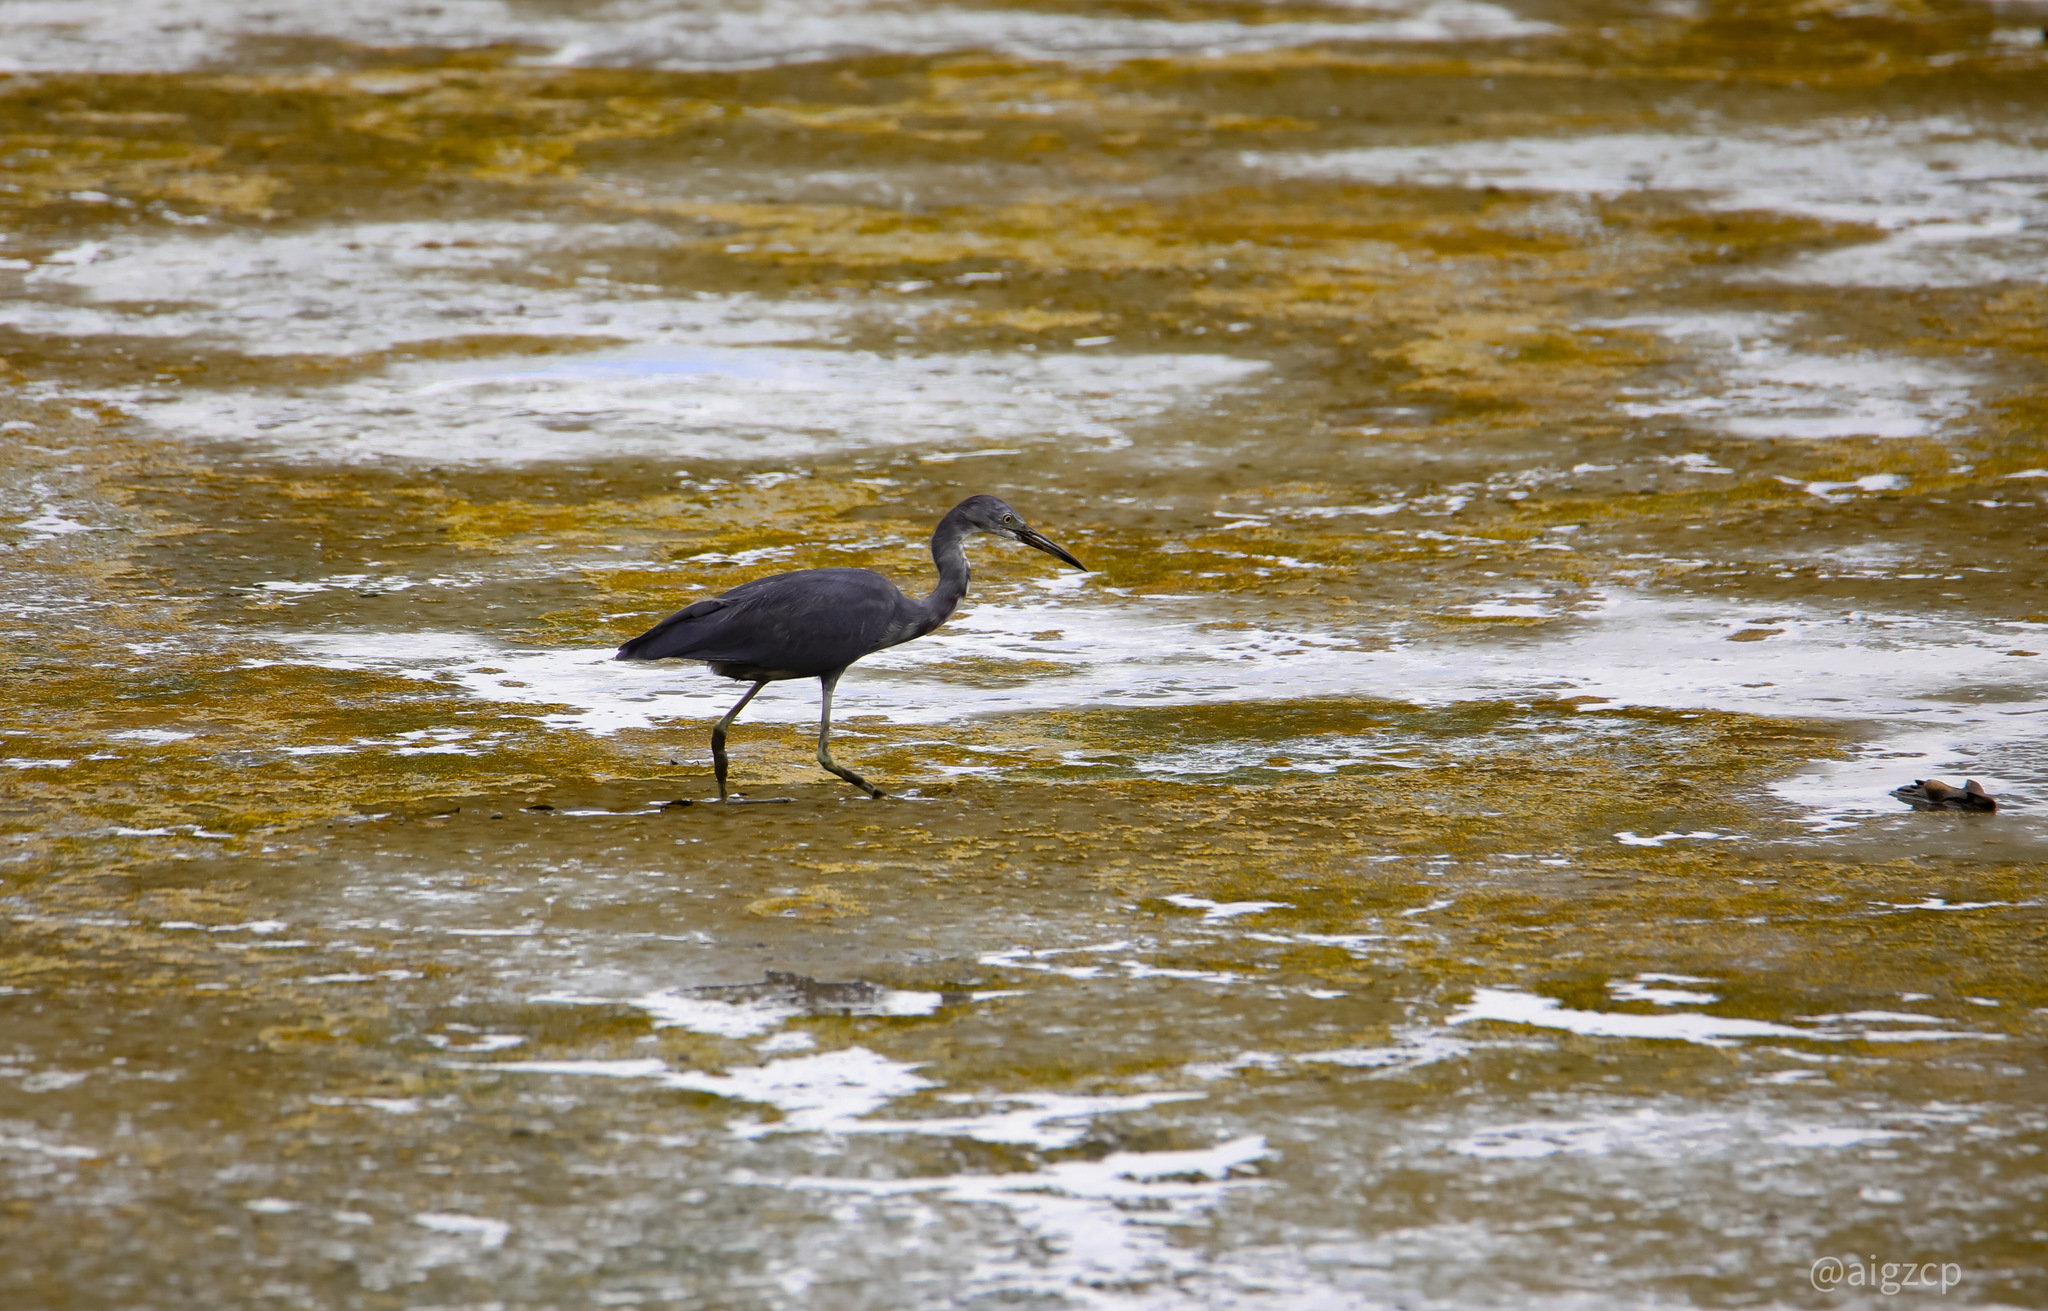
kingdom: Animalia
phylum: Chordata
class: Aves
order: Pelecaniformes
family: Ardeidae
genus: Egretta
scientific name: Egretta caerulea
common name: Little blue heron
